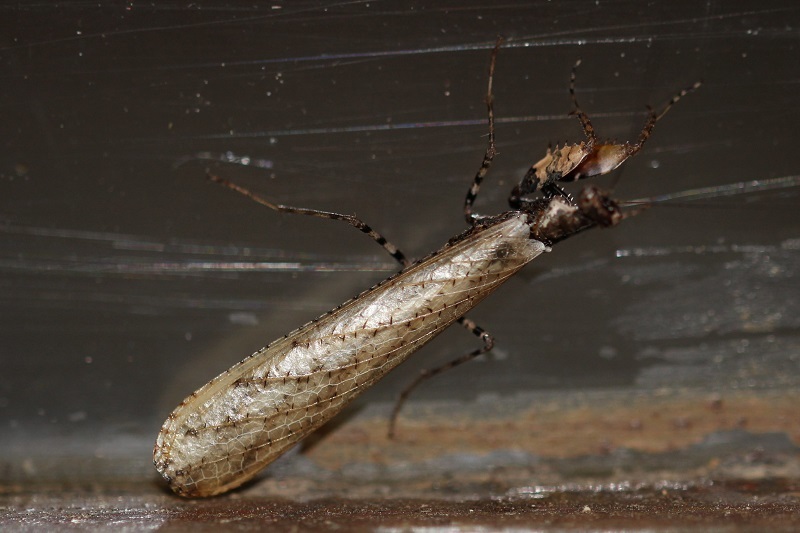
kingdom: Animalia
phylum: Arthropoda
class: Insecta
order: Mantodea
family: Hymenopodidae
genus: Oxypilus
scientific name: Oxypilus capensis
